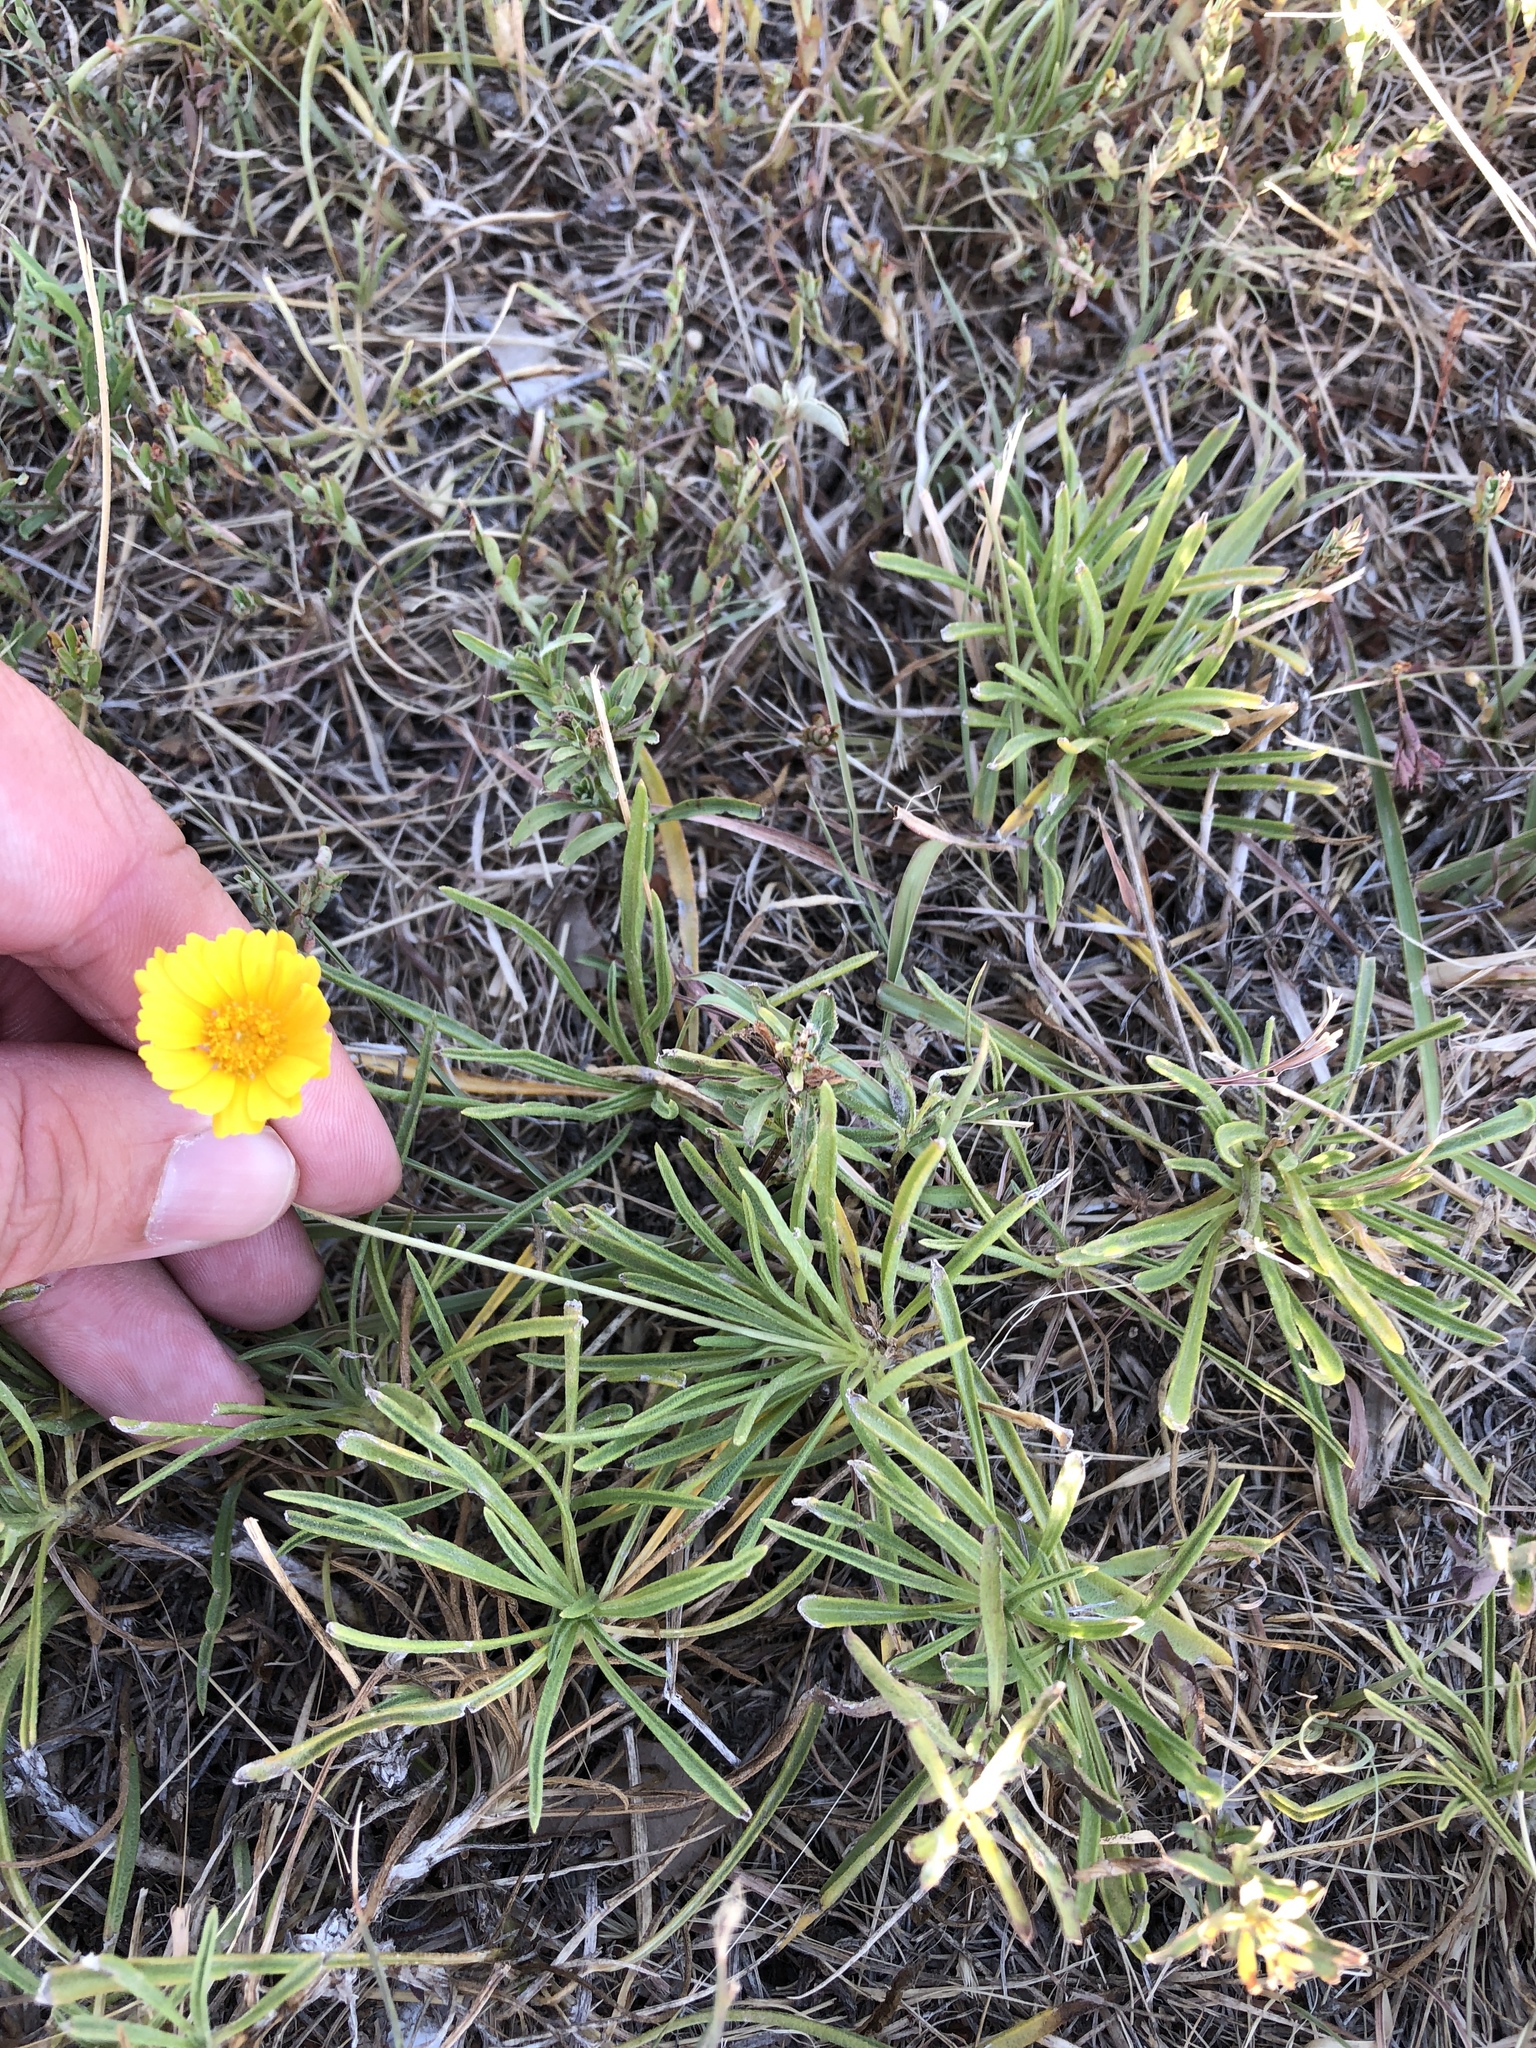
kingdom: Plantae
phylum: Tracheophyta
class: Magnoliopsida
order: Asterales
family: Asteraceae
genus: Tetraneuris
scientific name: Tetraneuris scaposa
